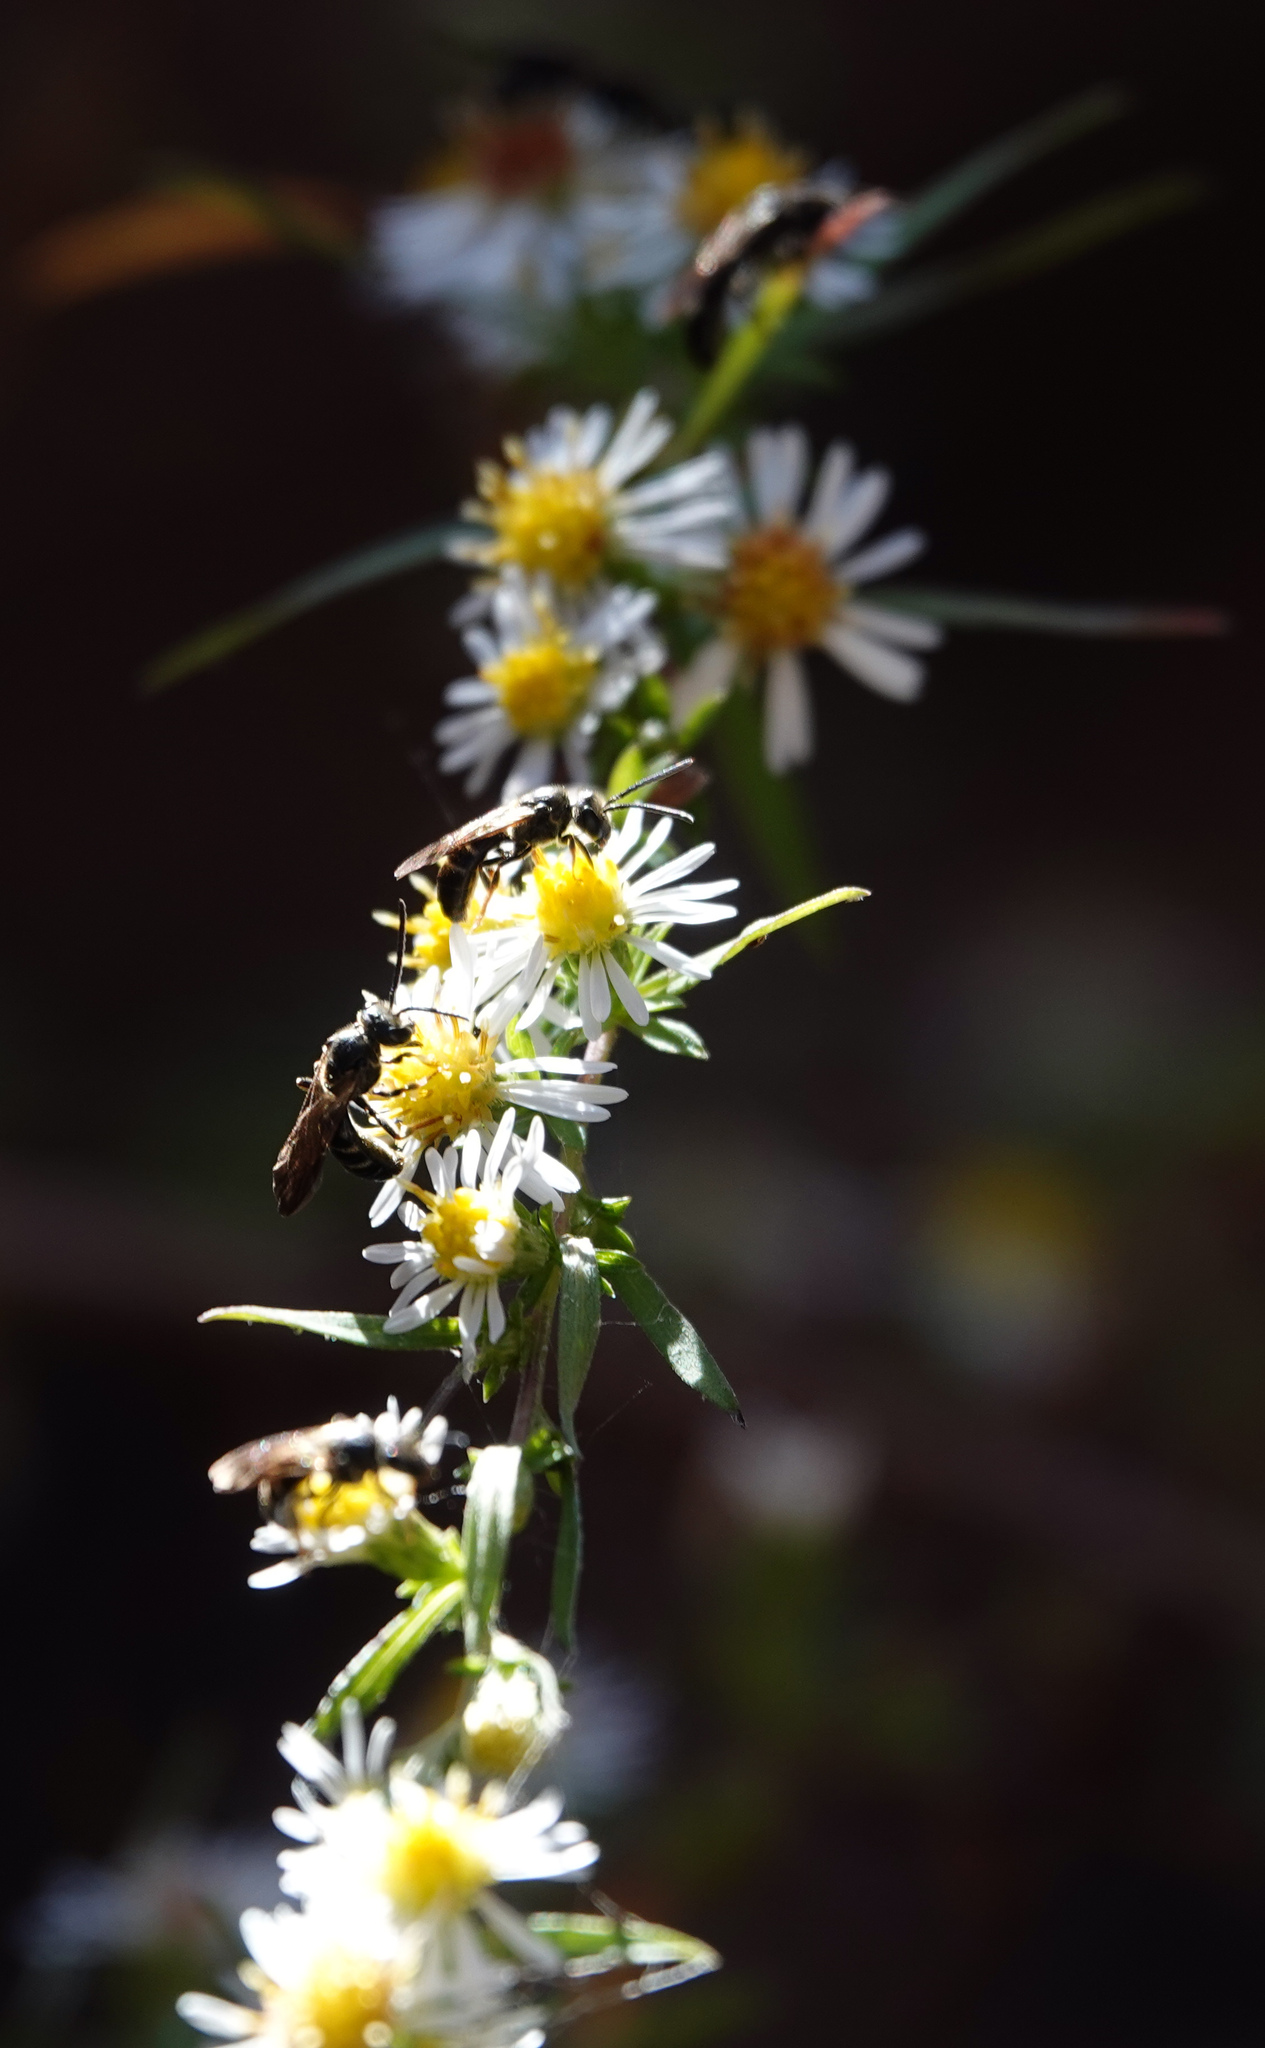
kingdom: Animalia
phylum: Arthropoda
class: Insecta
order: Hymenoptera
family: Halictidae
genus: Lasioglossum
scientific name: Lasioglossum fuscipenne
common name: Brown-winged sweat bee
